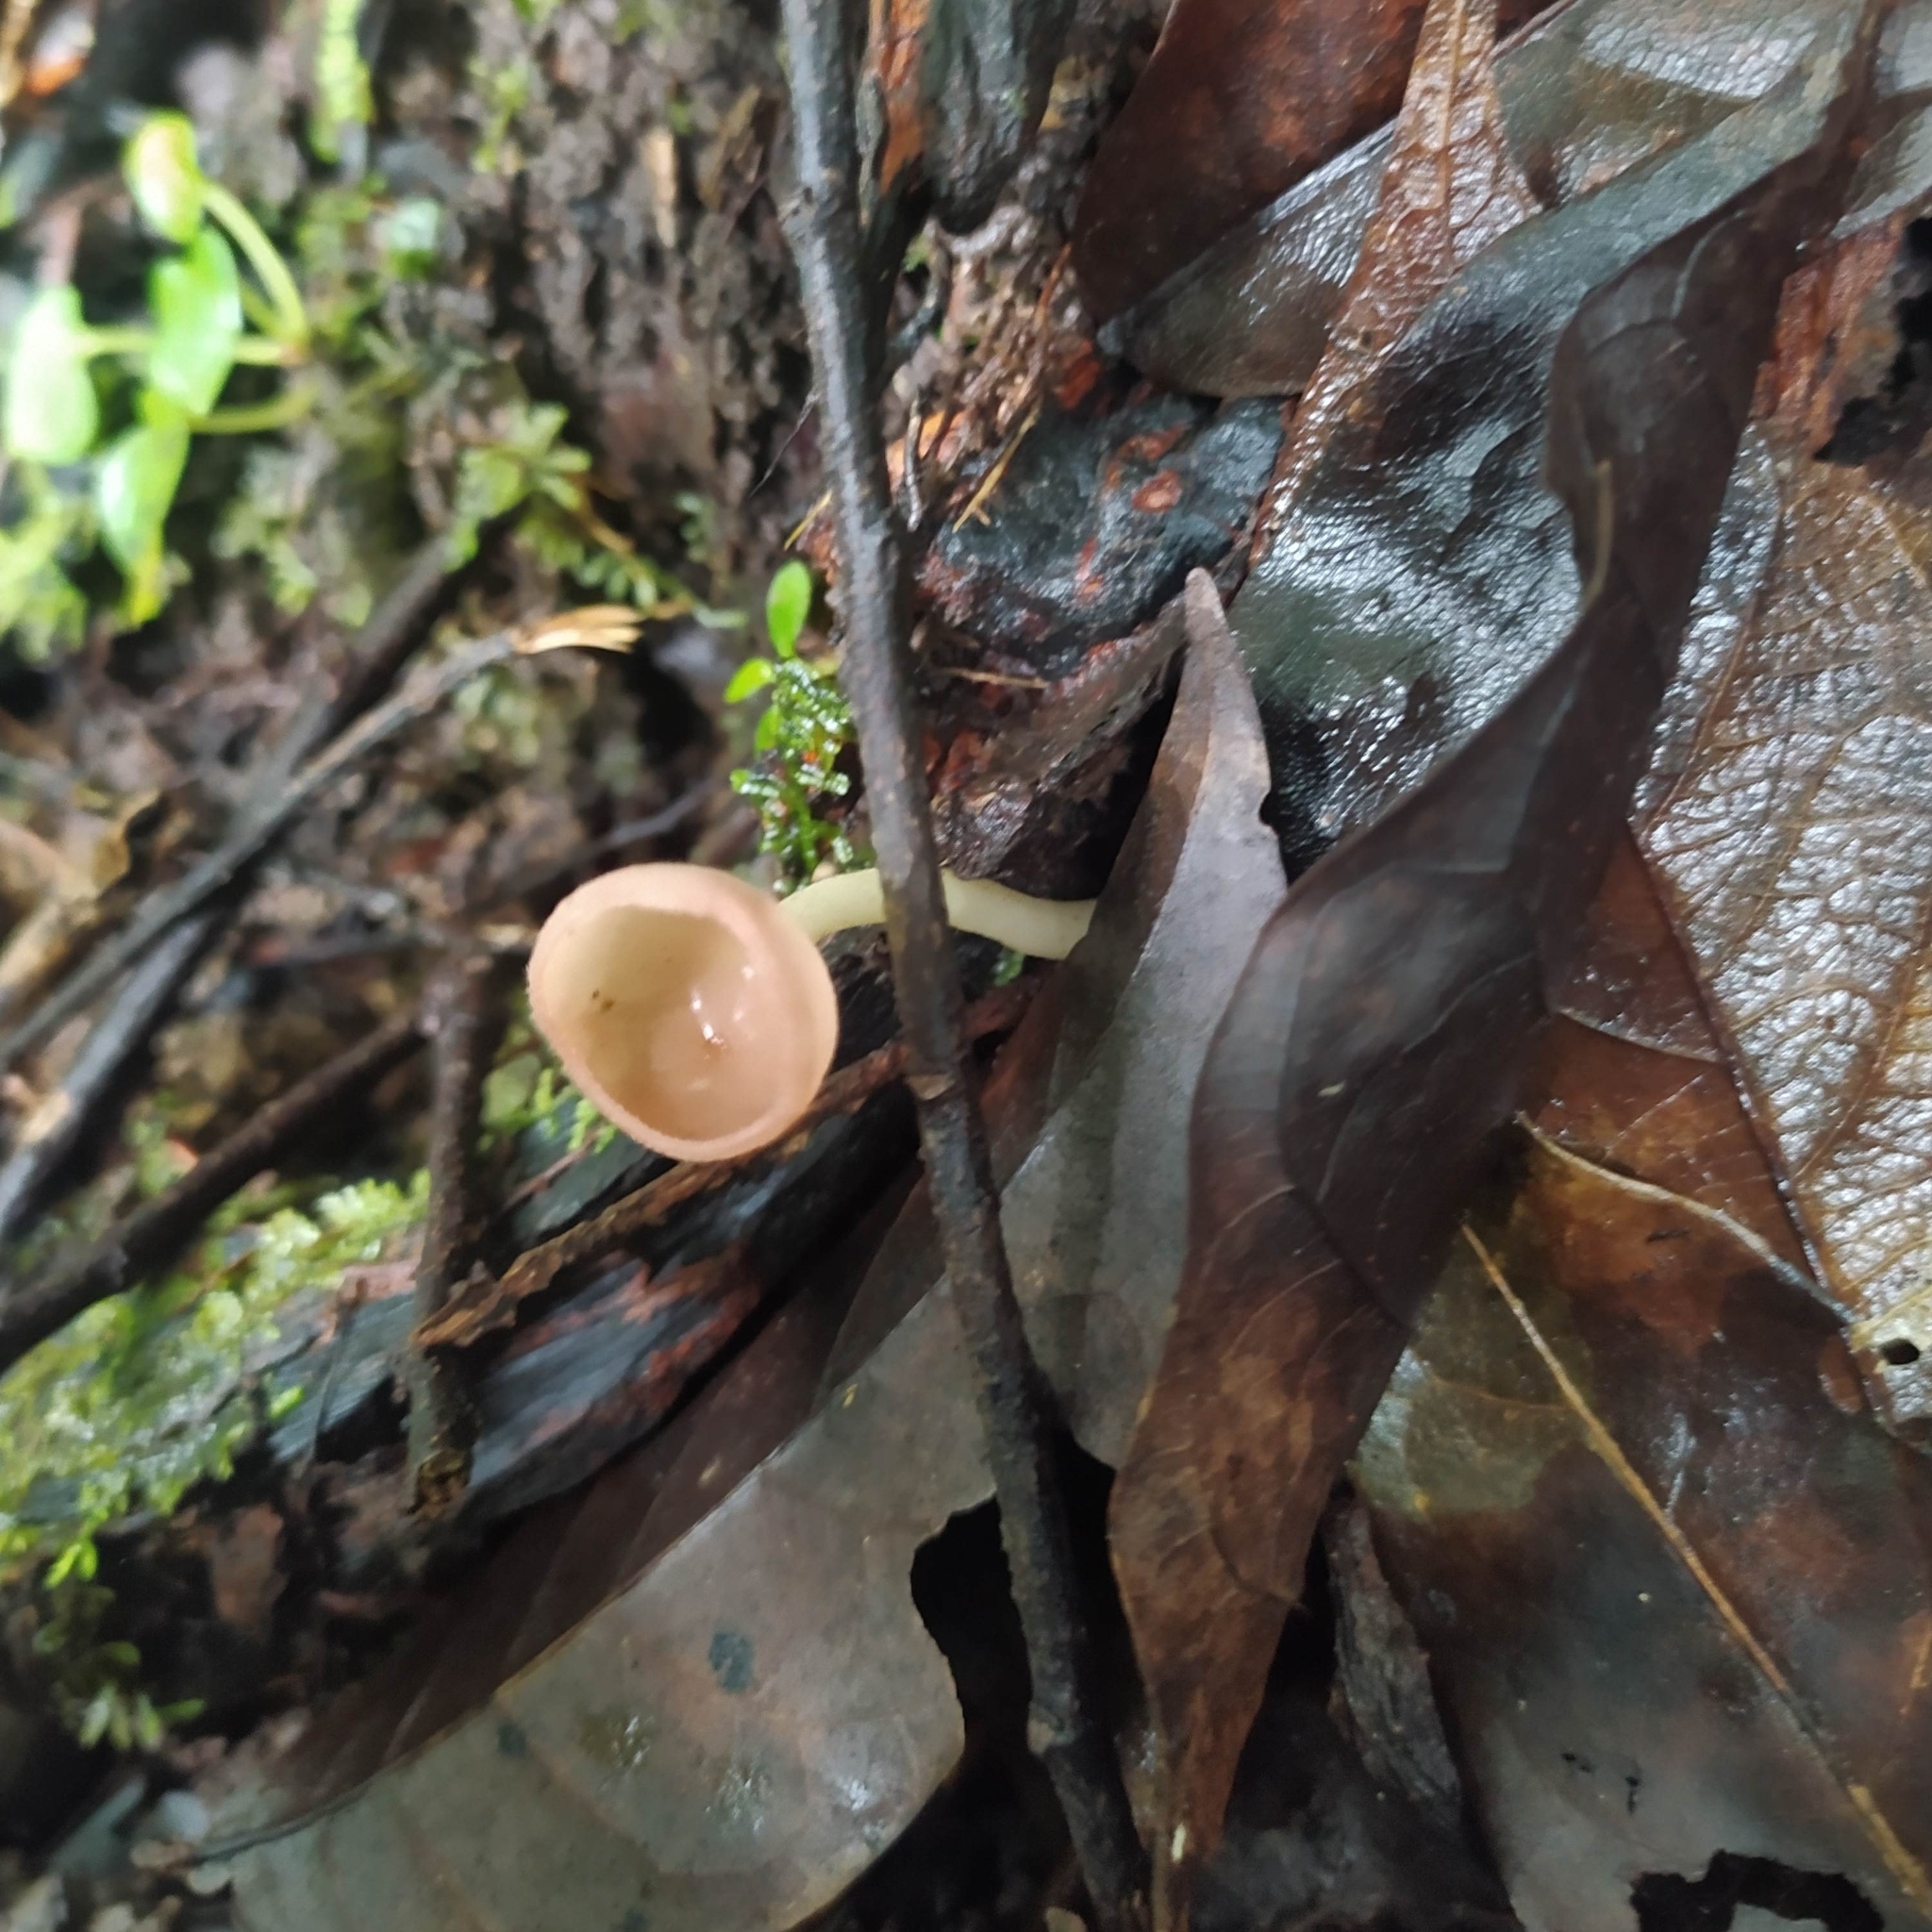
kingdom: Fungi
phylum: Ascomycota
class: Pezizomycetes
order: Pezizales
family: Sarcoscyphaceae
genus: Cookeina
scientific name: Cookeina speciosa
